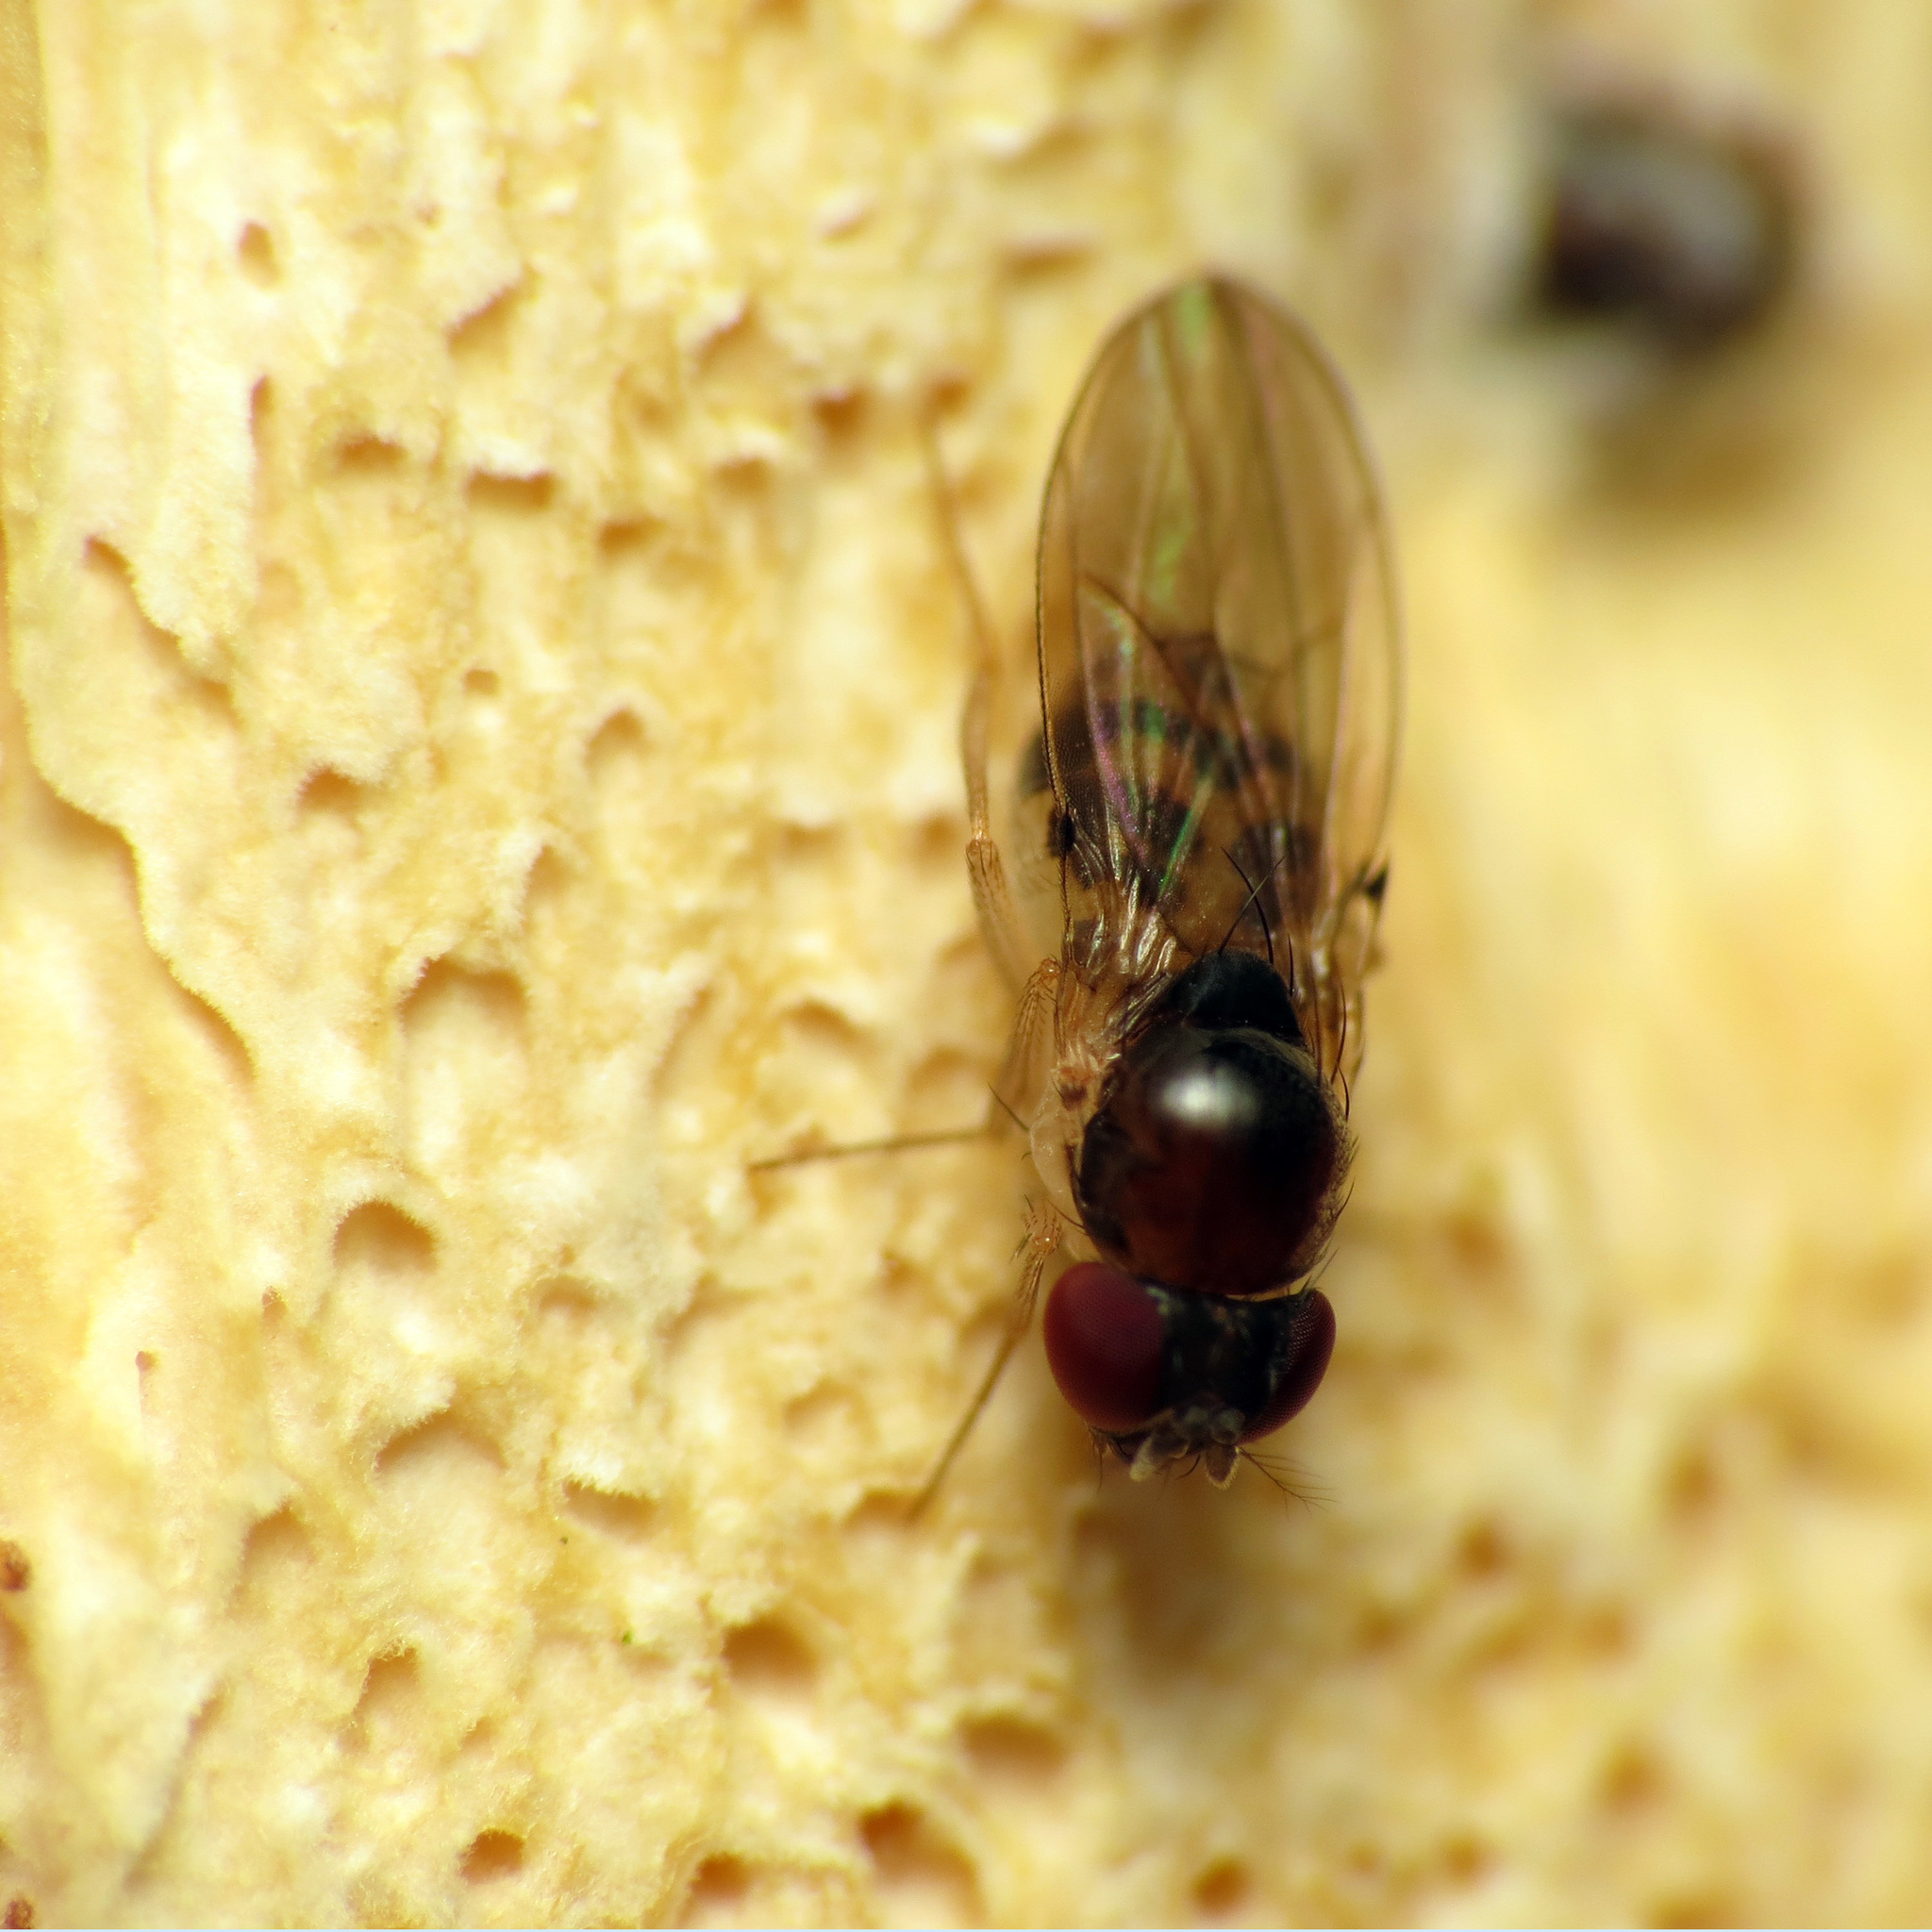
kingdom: Animalia
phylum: Arthropoda
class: Insecta
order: Diptera
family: Drosophilidae
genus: Mycodrosophila
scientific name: Mycodrosophila claytonae
